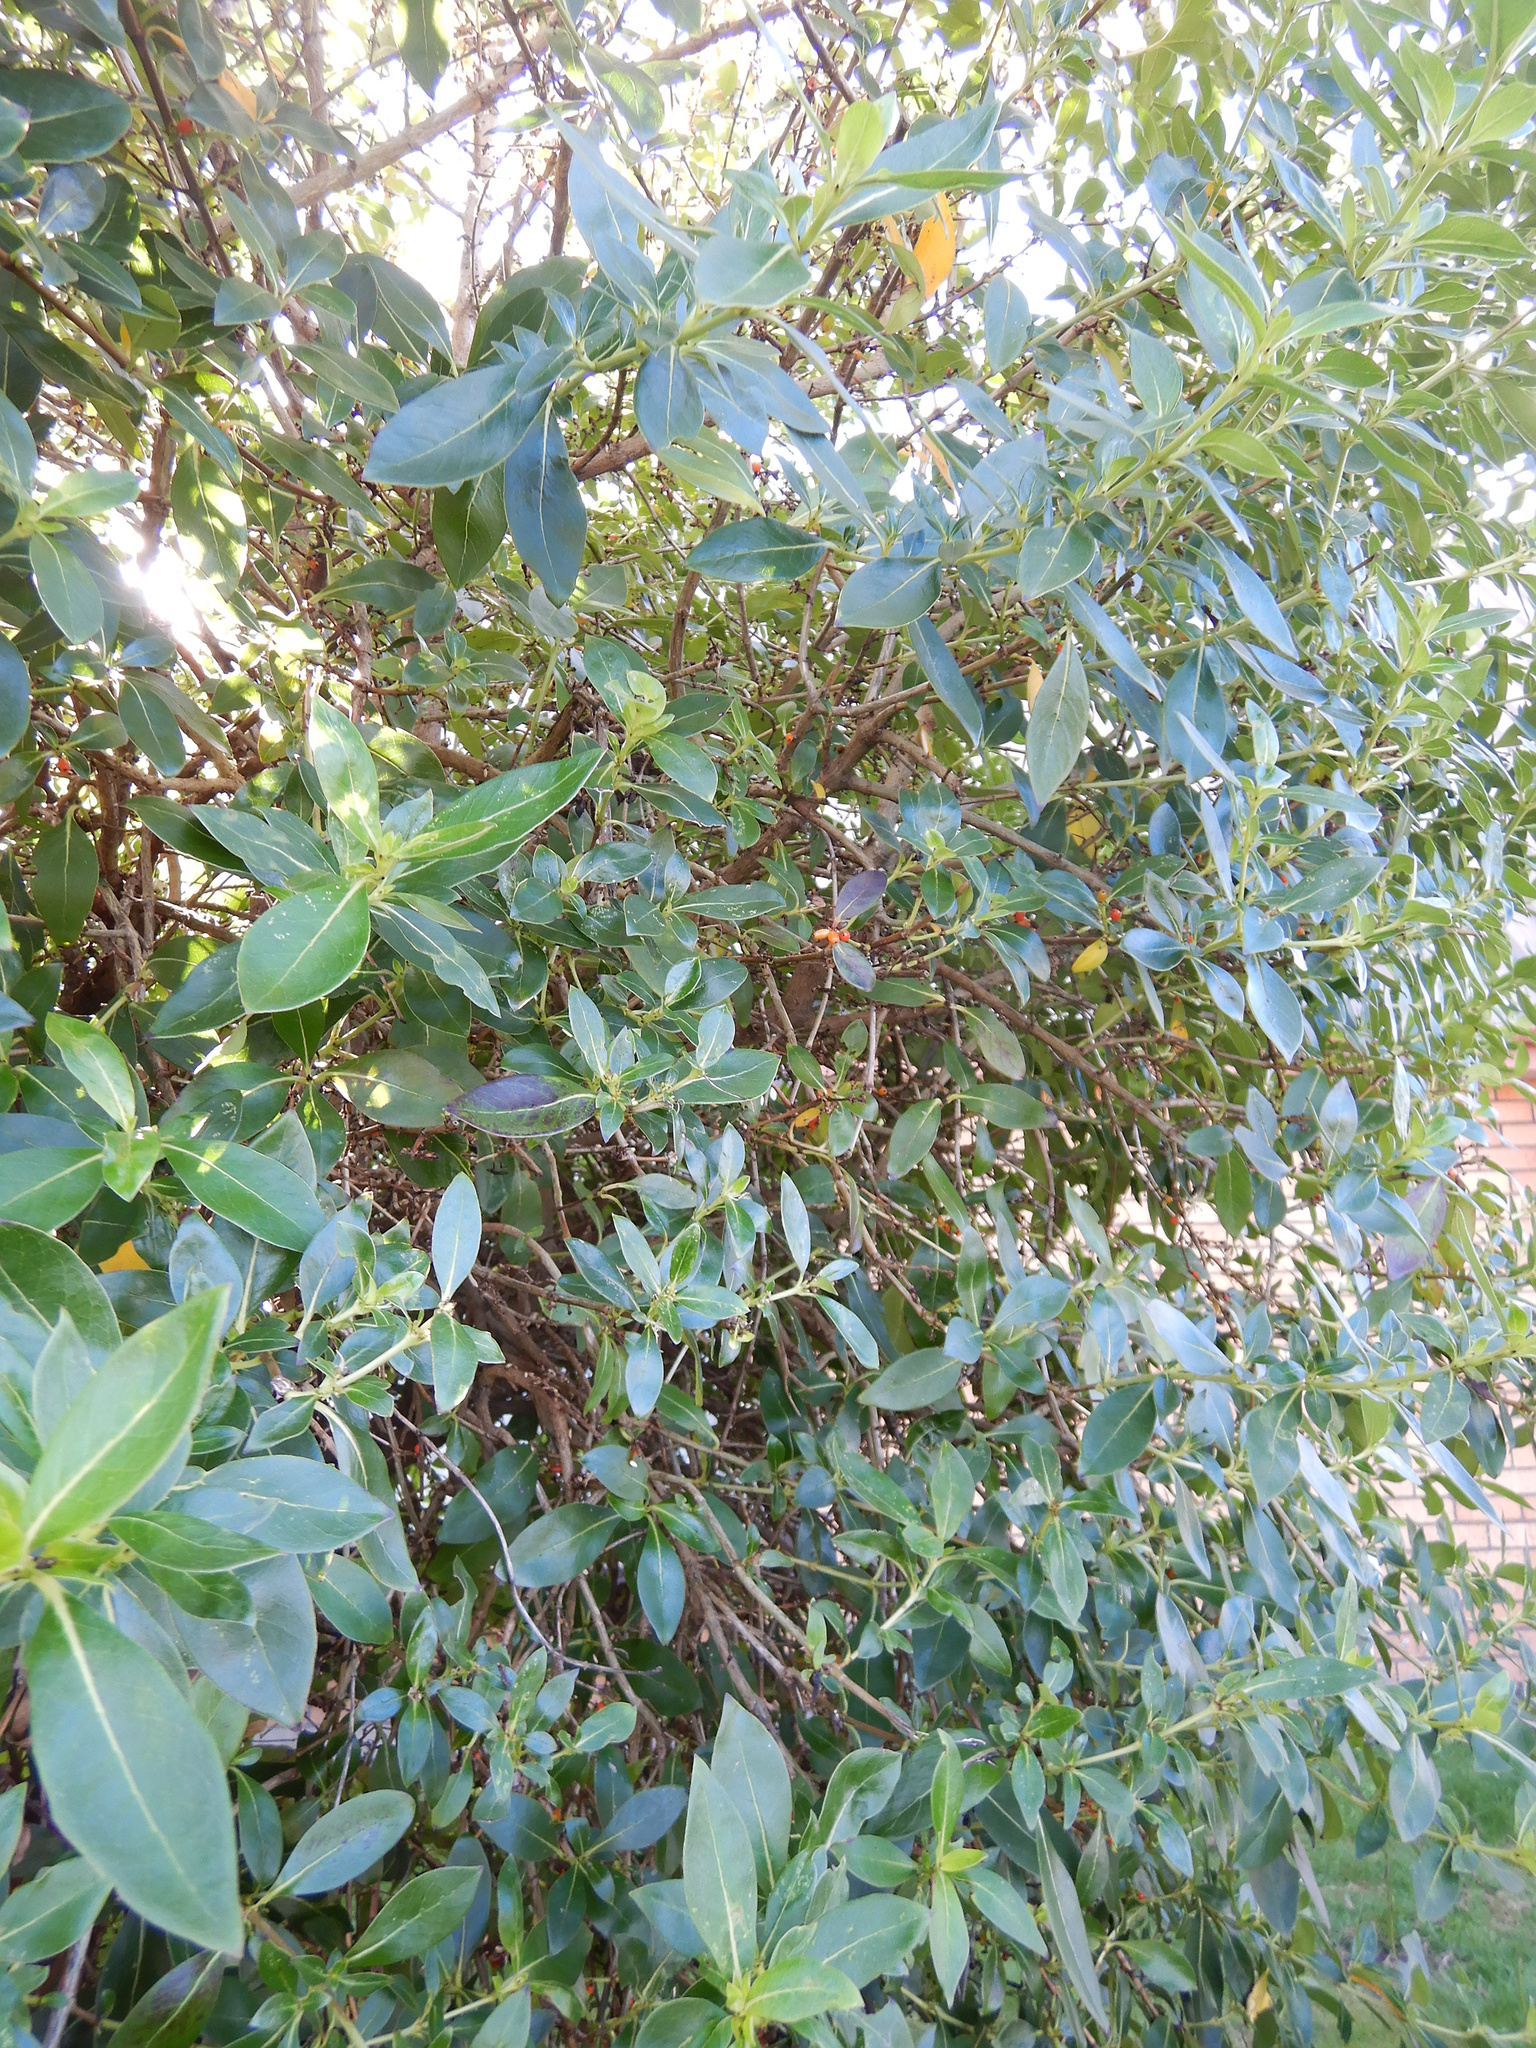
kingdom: Plantae
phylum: Tracheophyta
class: Magnoliopsida
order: Gentianales
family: Rubiaceae
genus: Coprosma
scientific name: Coprosma robusta
